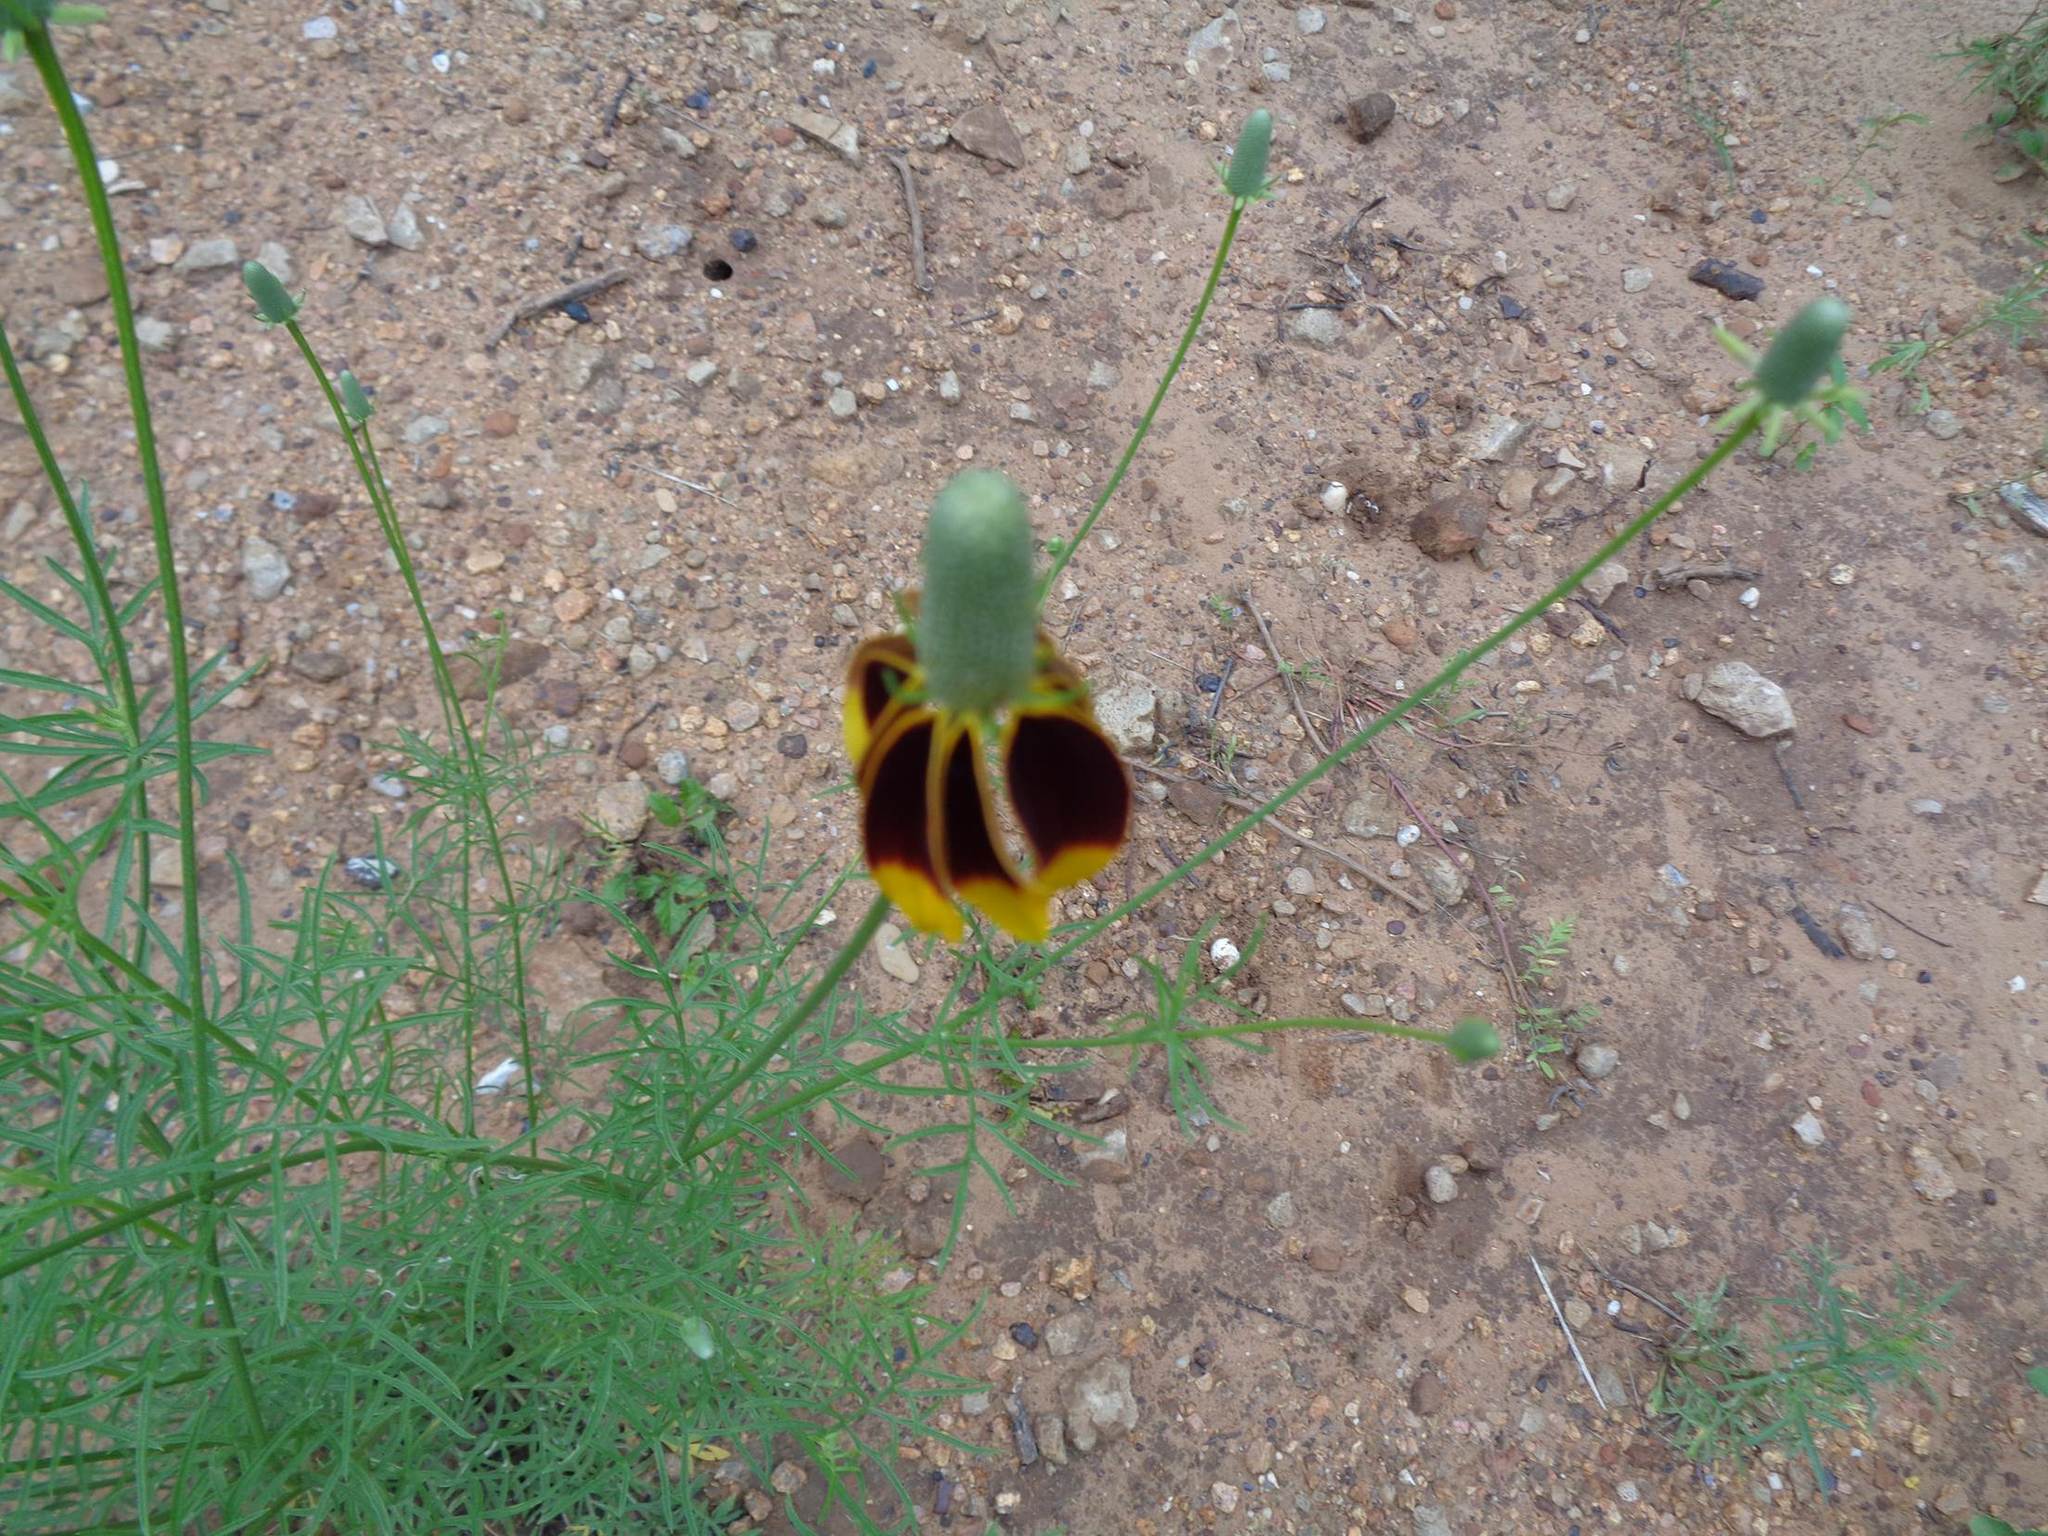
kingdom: Plantae
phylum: Tracheophyta
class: Magnoliopsida
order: Asterales
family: Asteraceae
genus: Ratibida
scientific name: Ratibida columnifera
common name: Prairie coneflower
